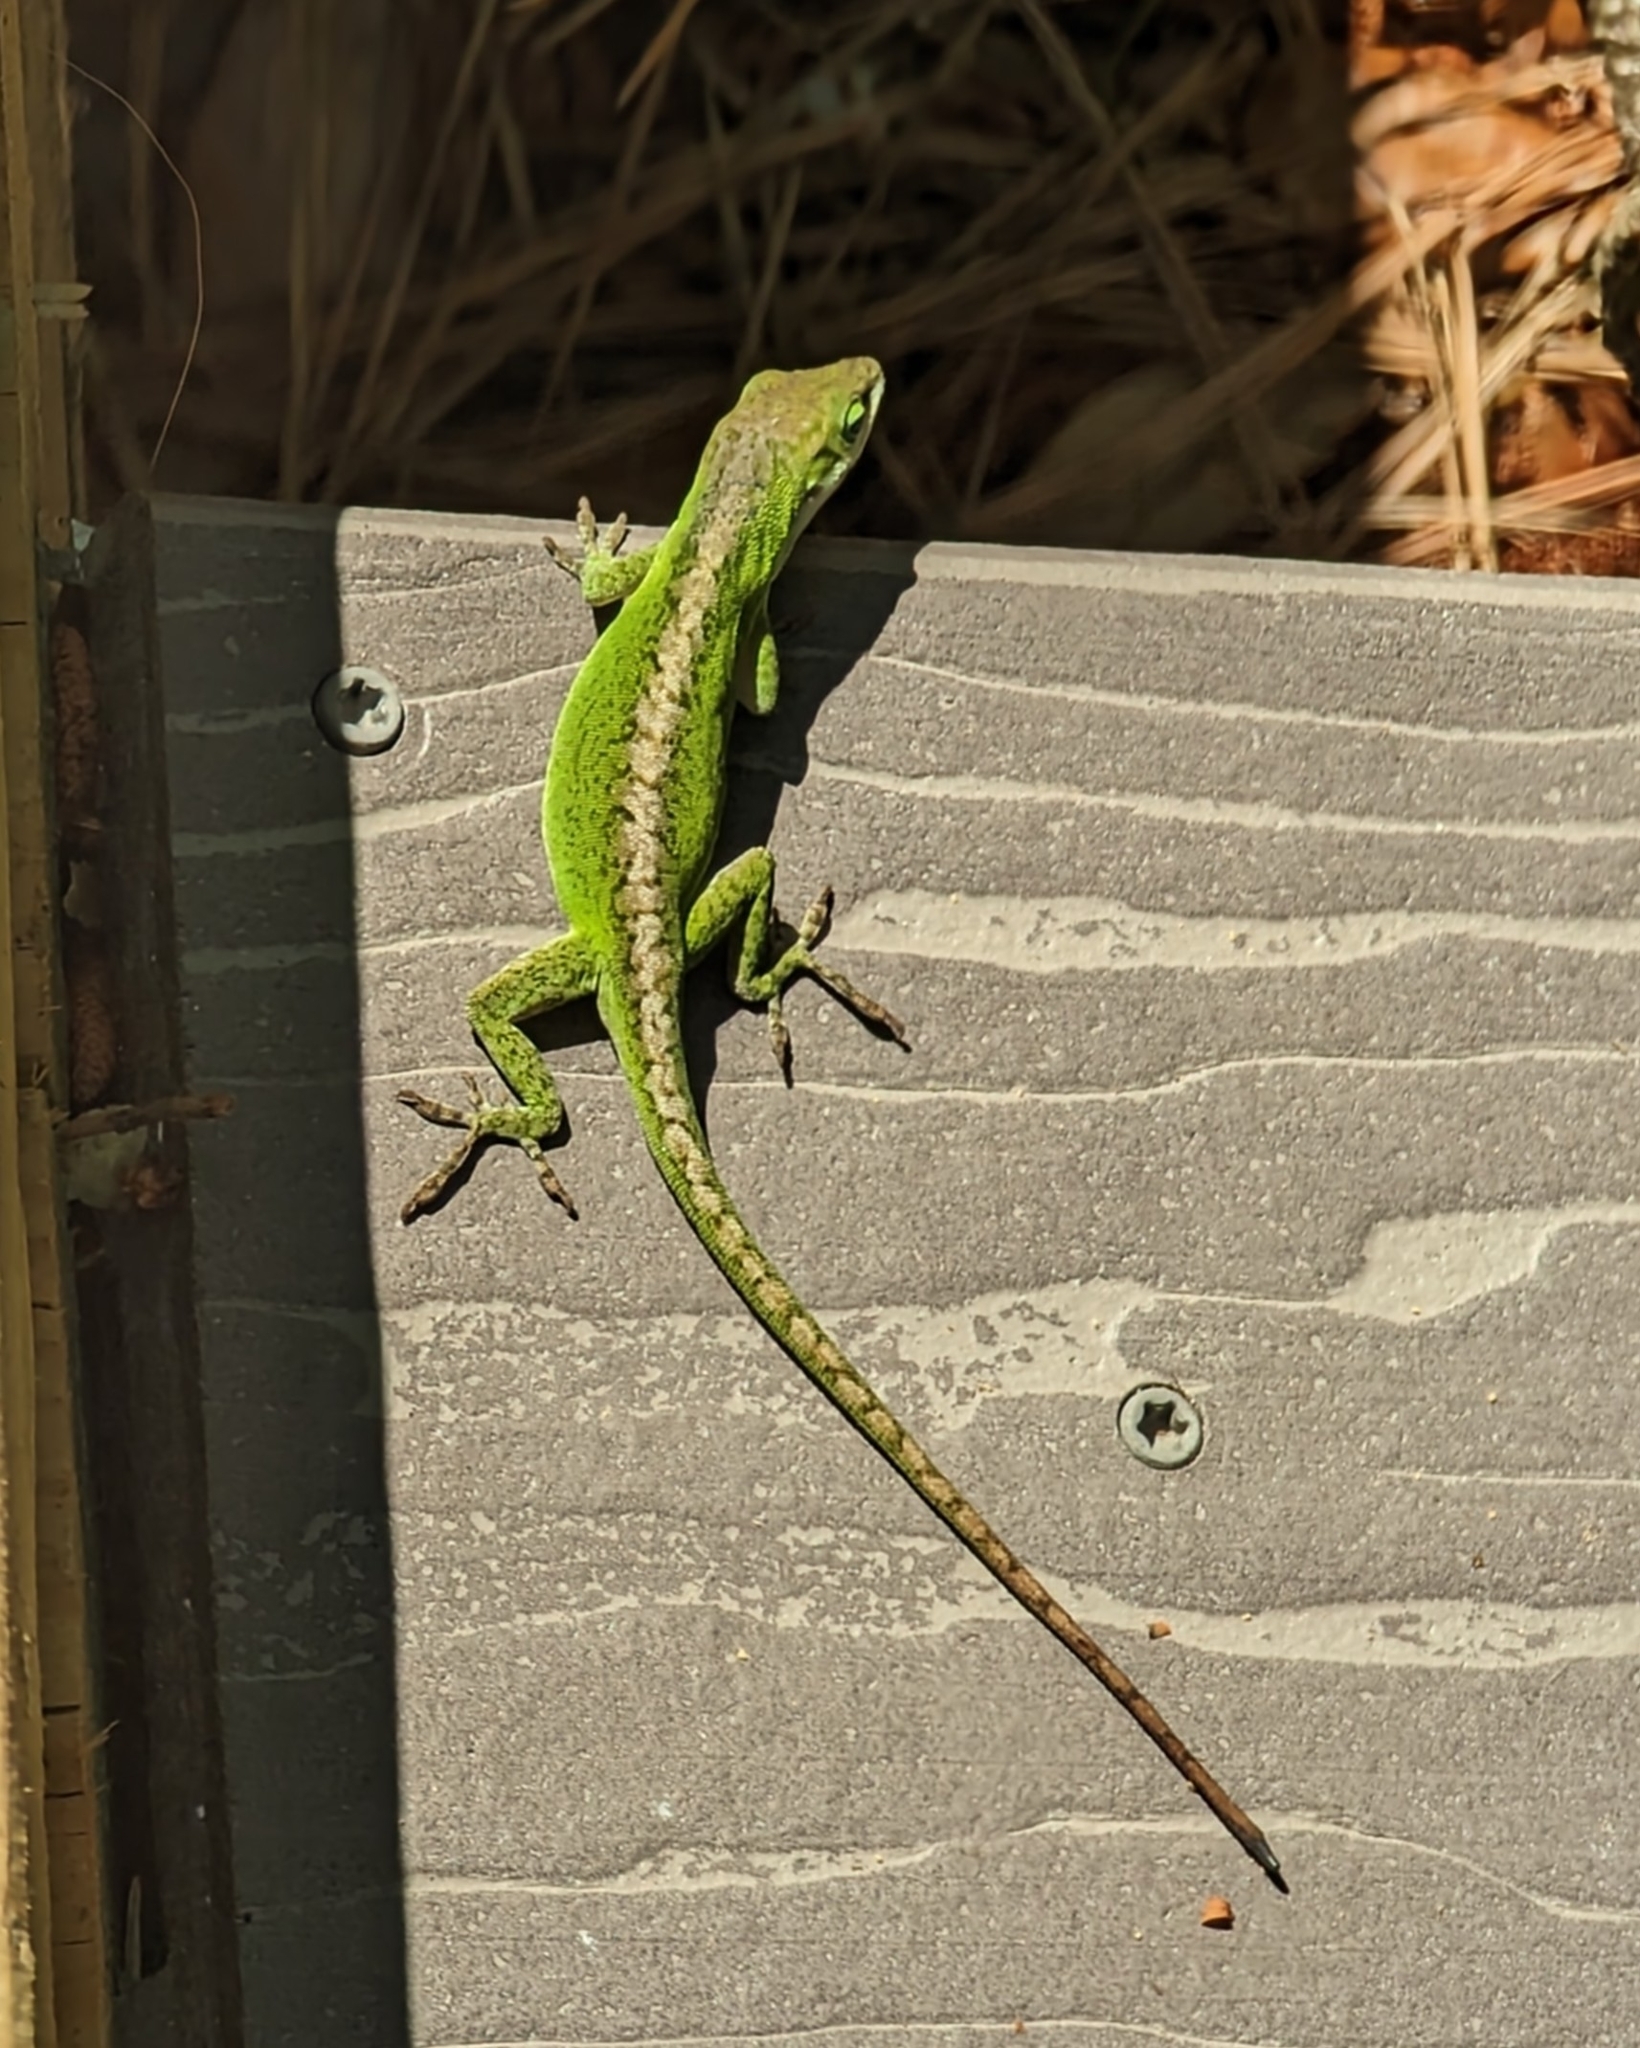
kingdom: Animalia
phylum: Chordata
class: Squamata
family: Dactyloidae
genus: Anolis
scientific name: Anolis carolinensis
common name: Green anole
